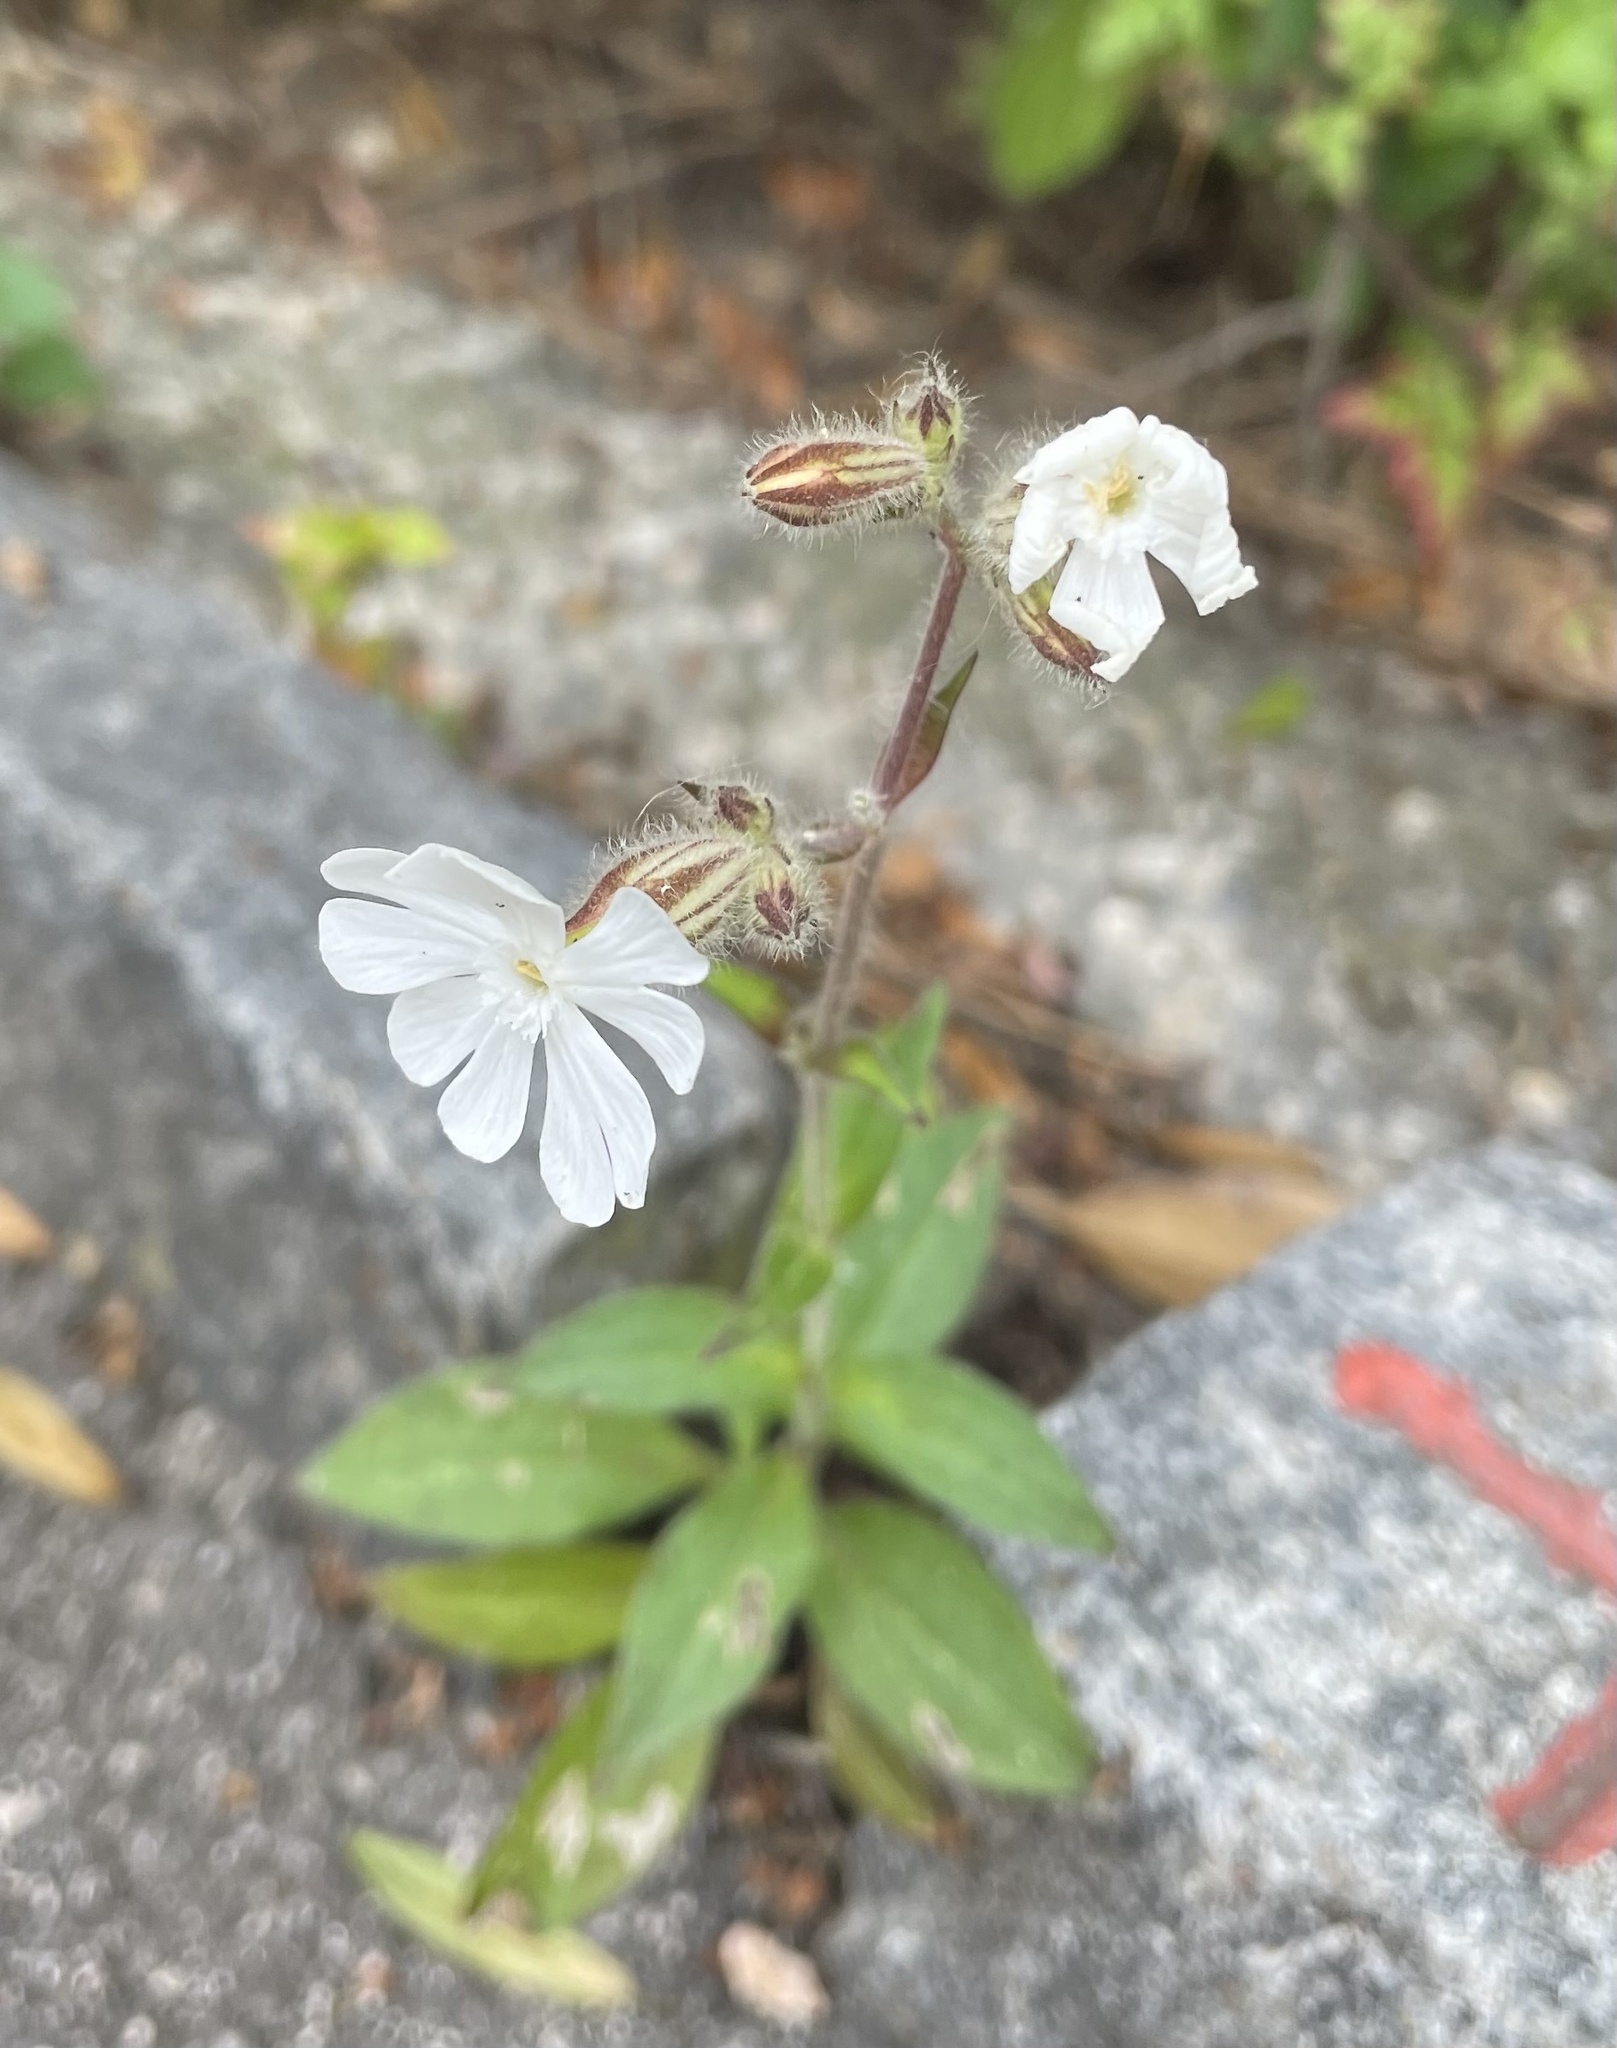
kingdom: Plantae
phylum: Tracheophyta
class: Magnoliopsida
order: Caryophyllales
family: Caryophyllaceae
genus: Silene
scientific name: Silene latifolia
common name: White campion
